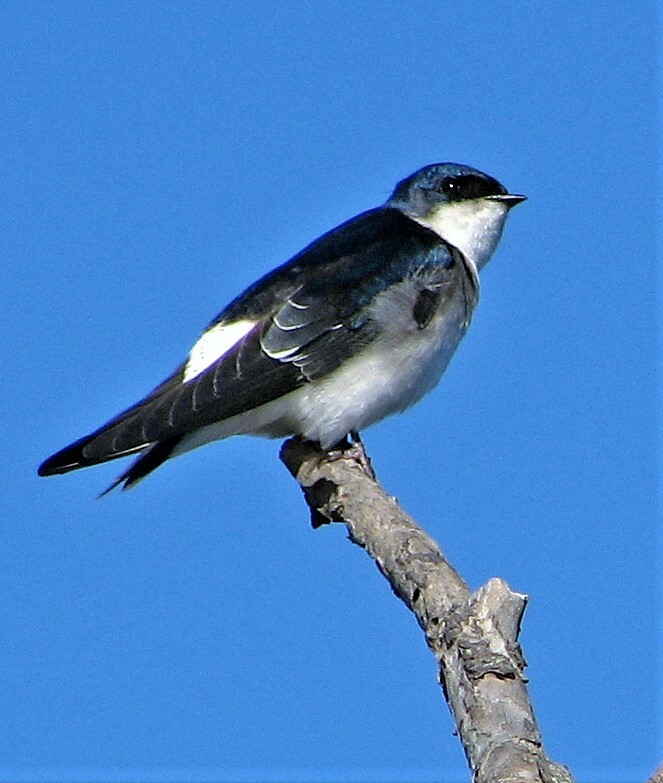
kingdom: Animalia
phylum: Chordata
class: Aves
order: Passeriformes
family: Hirundinidae
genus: Tachycineta
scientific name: Tachycineta leucopyga
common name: Chilean swallow
